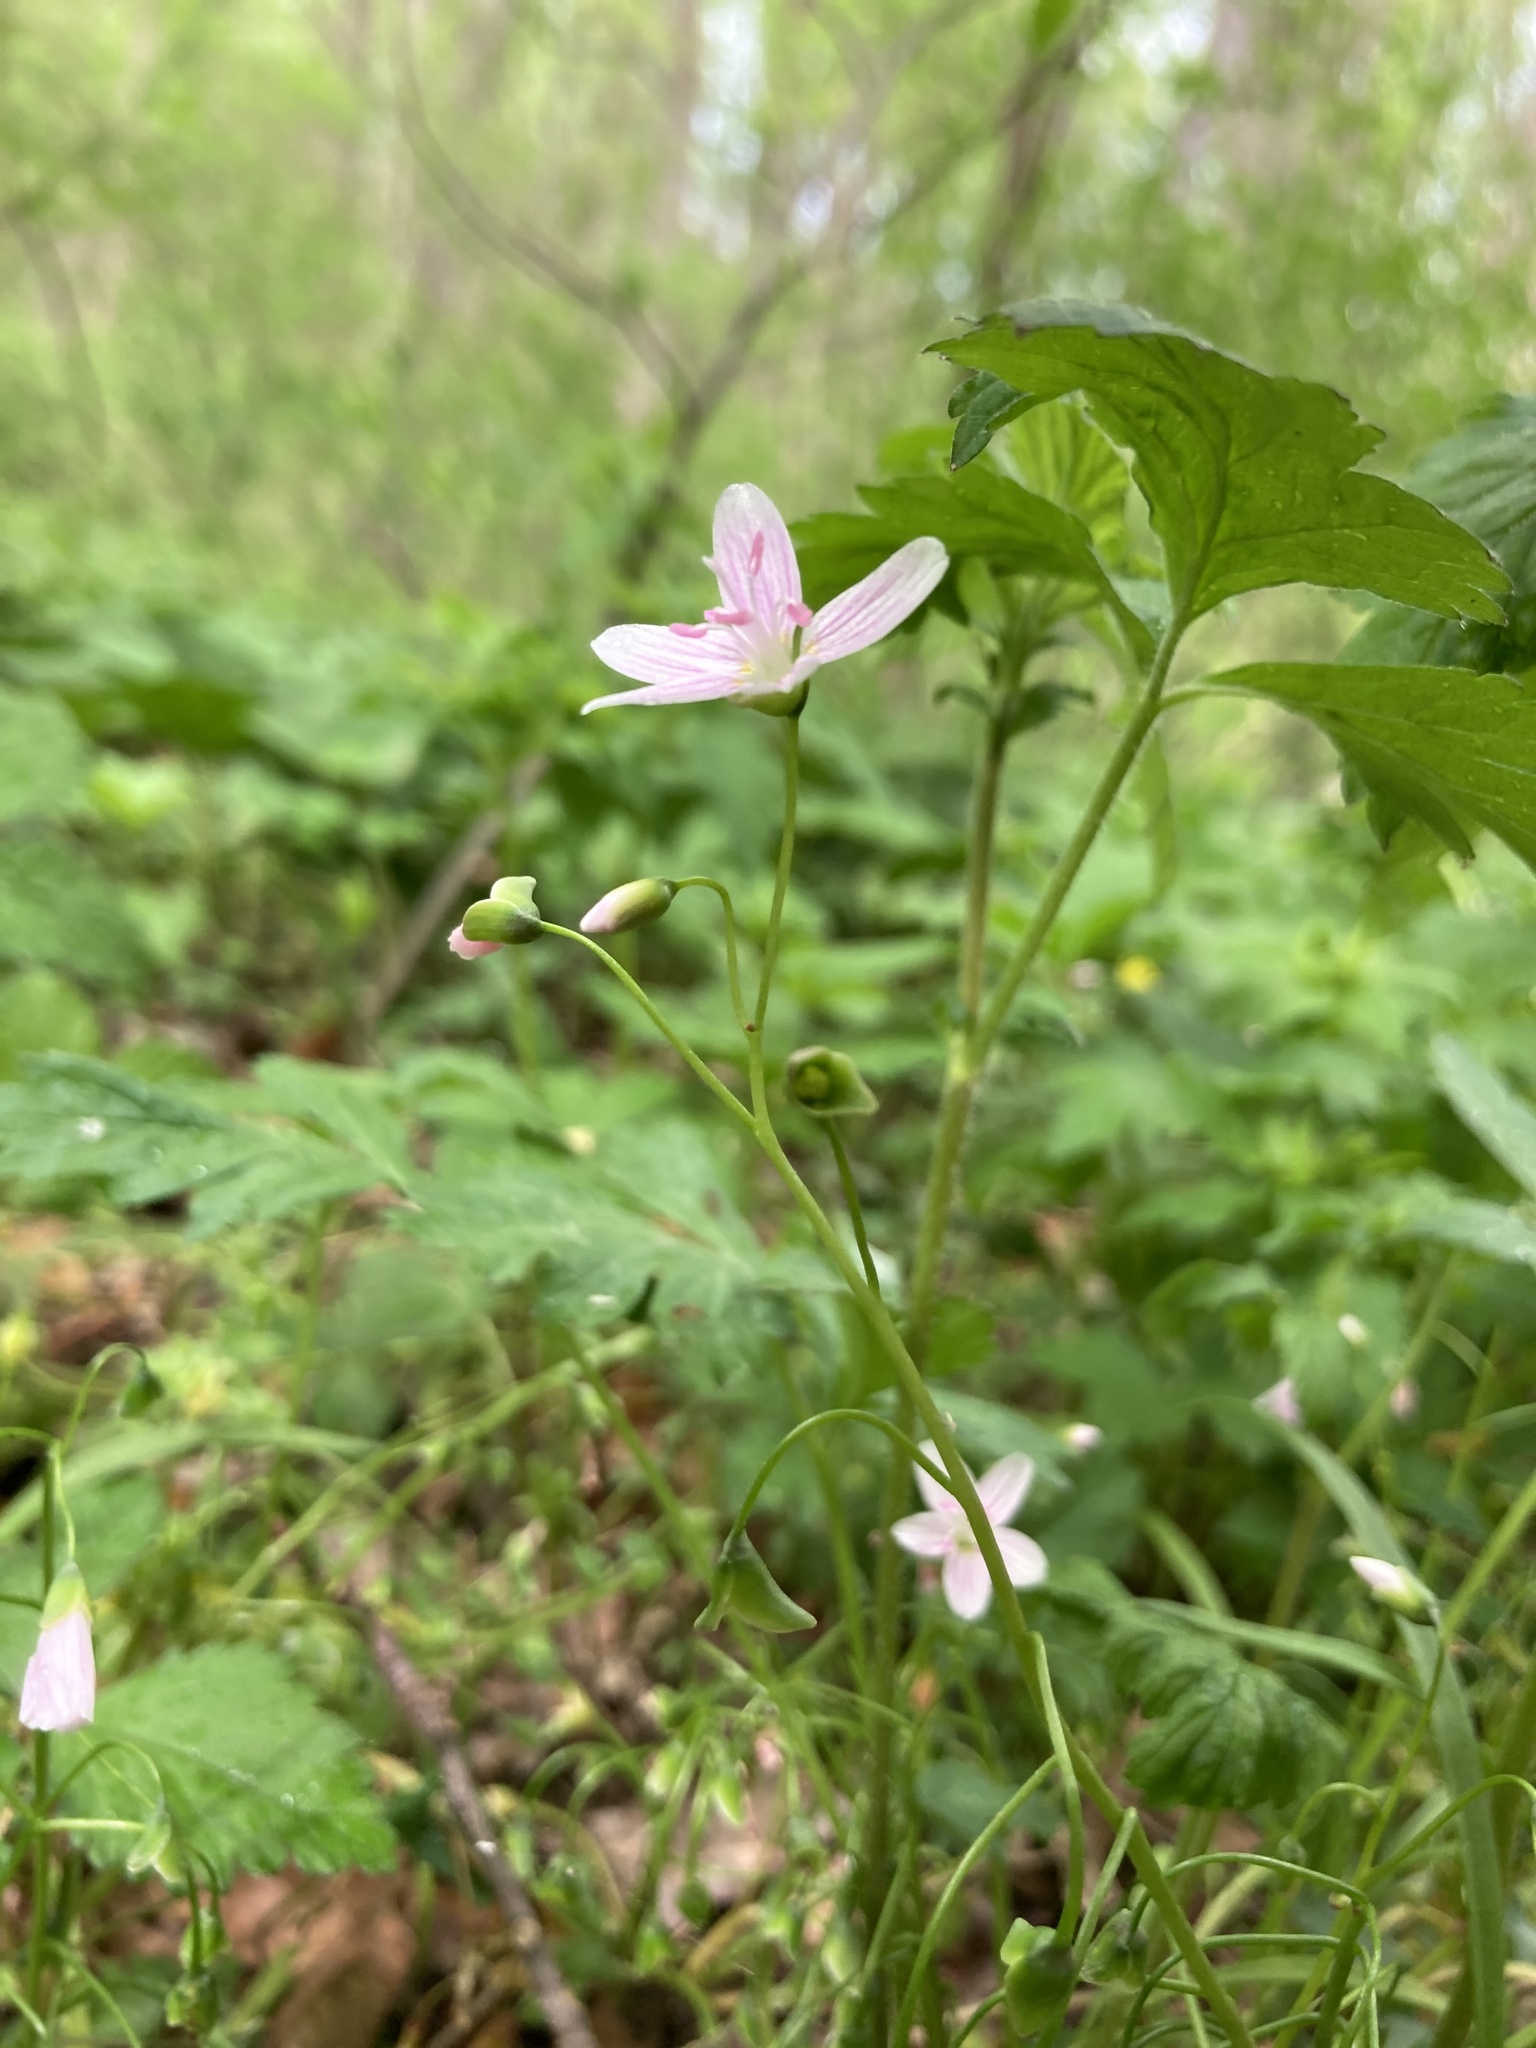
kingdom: Plantae
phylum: Tracheophyta
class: Magnoliopsida
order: Caryophyllales
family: Montiaceae
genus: Claytonia
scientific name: Claytonia virginica
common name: Virginia springbeauty
